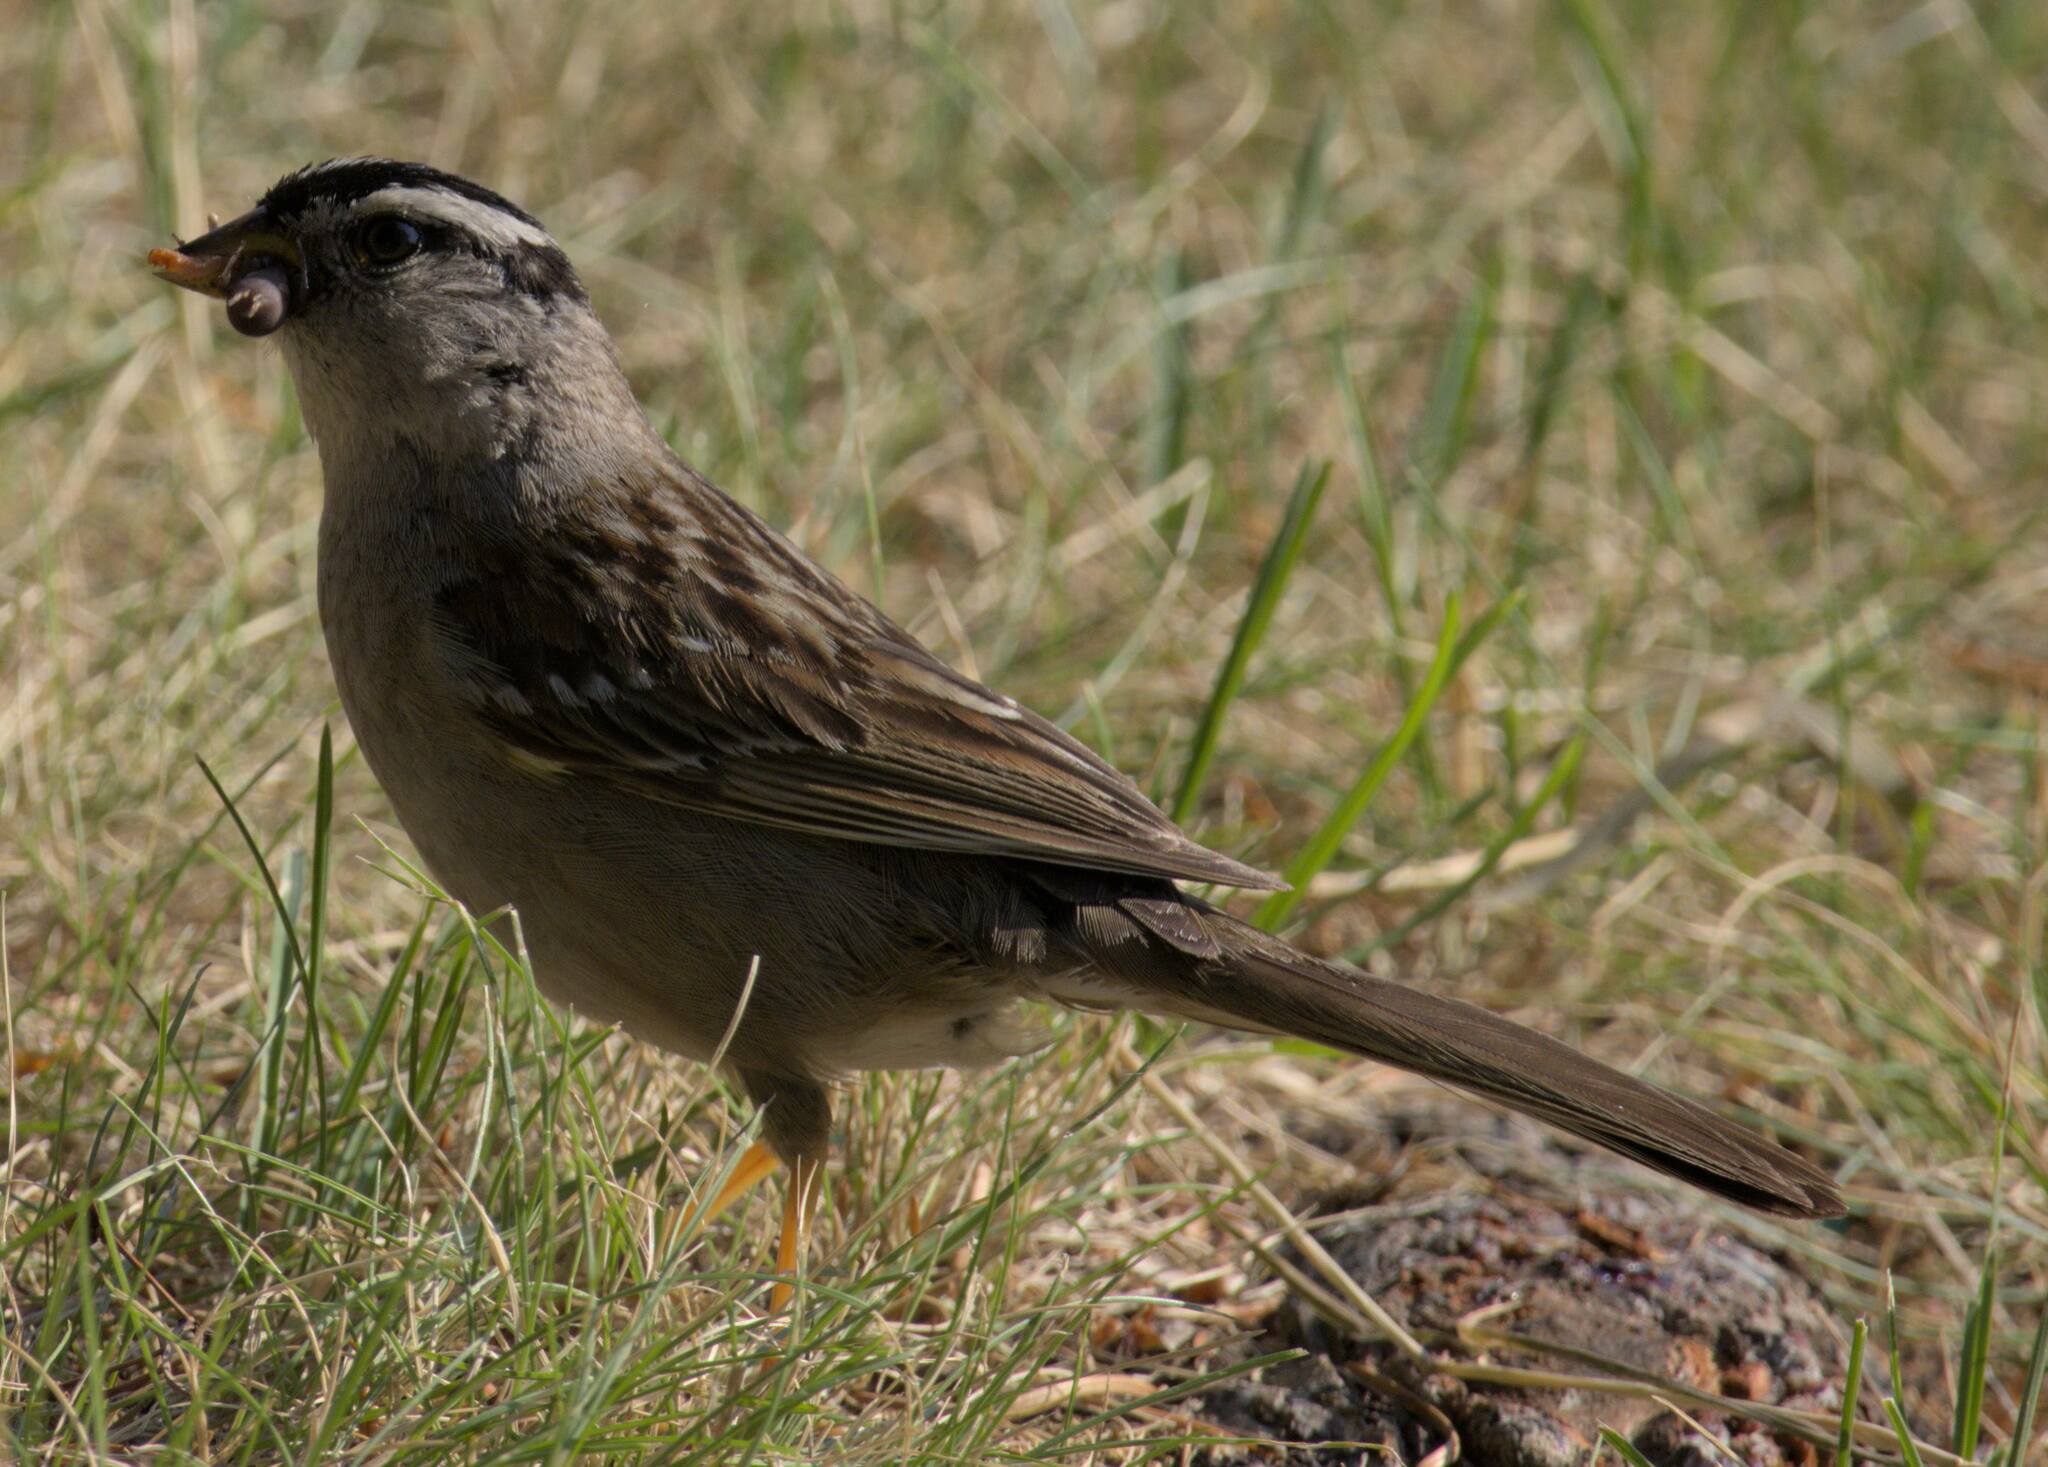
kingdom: Animalia
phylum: Chordata
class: Aves
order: Passeriformes
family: Passerellidae
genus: Zonotrichia
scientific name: Zonotrichia leucophrys
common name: White-crowned sparrow
